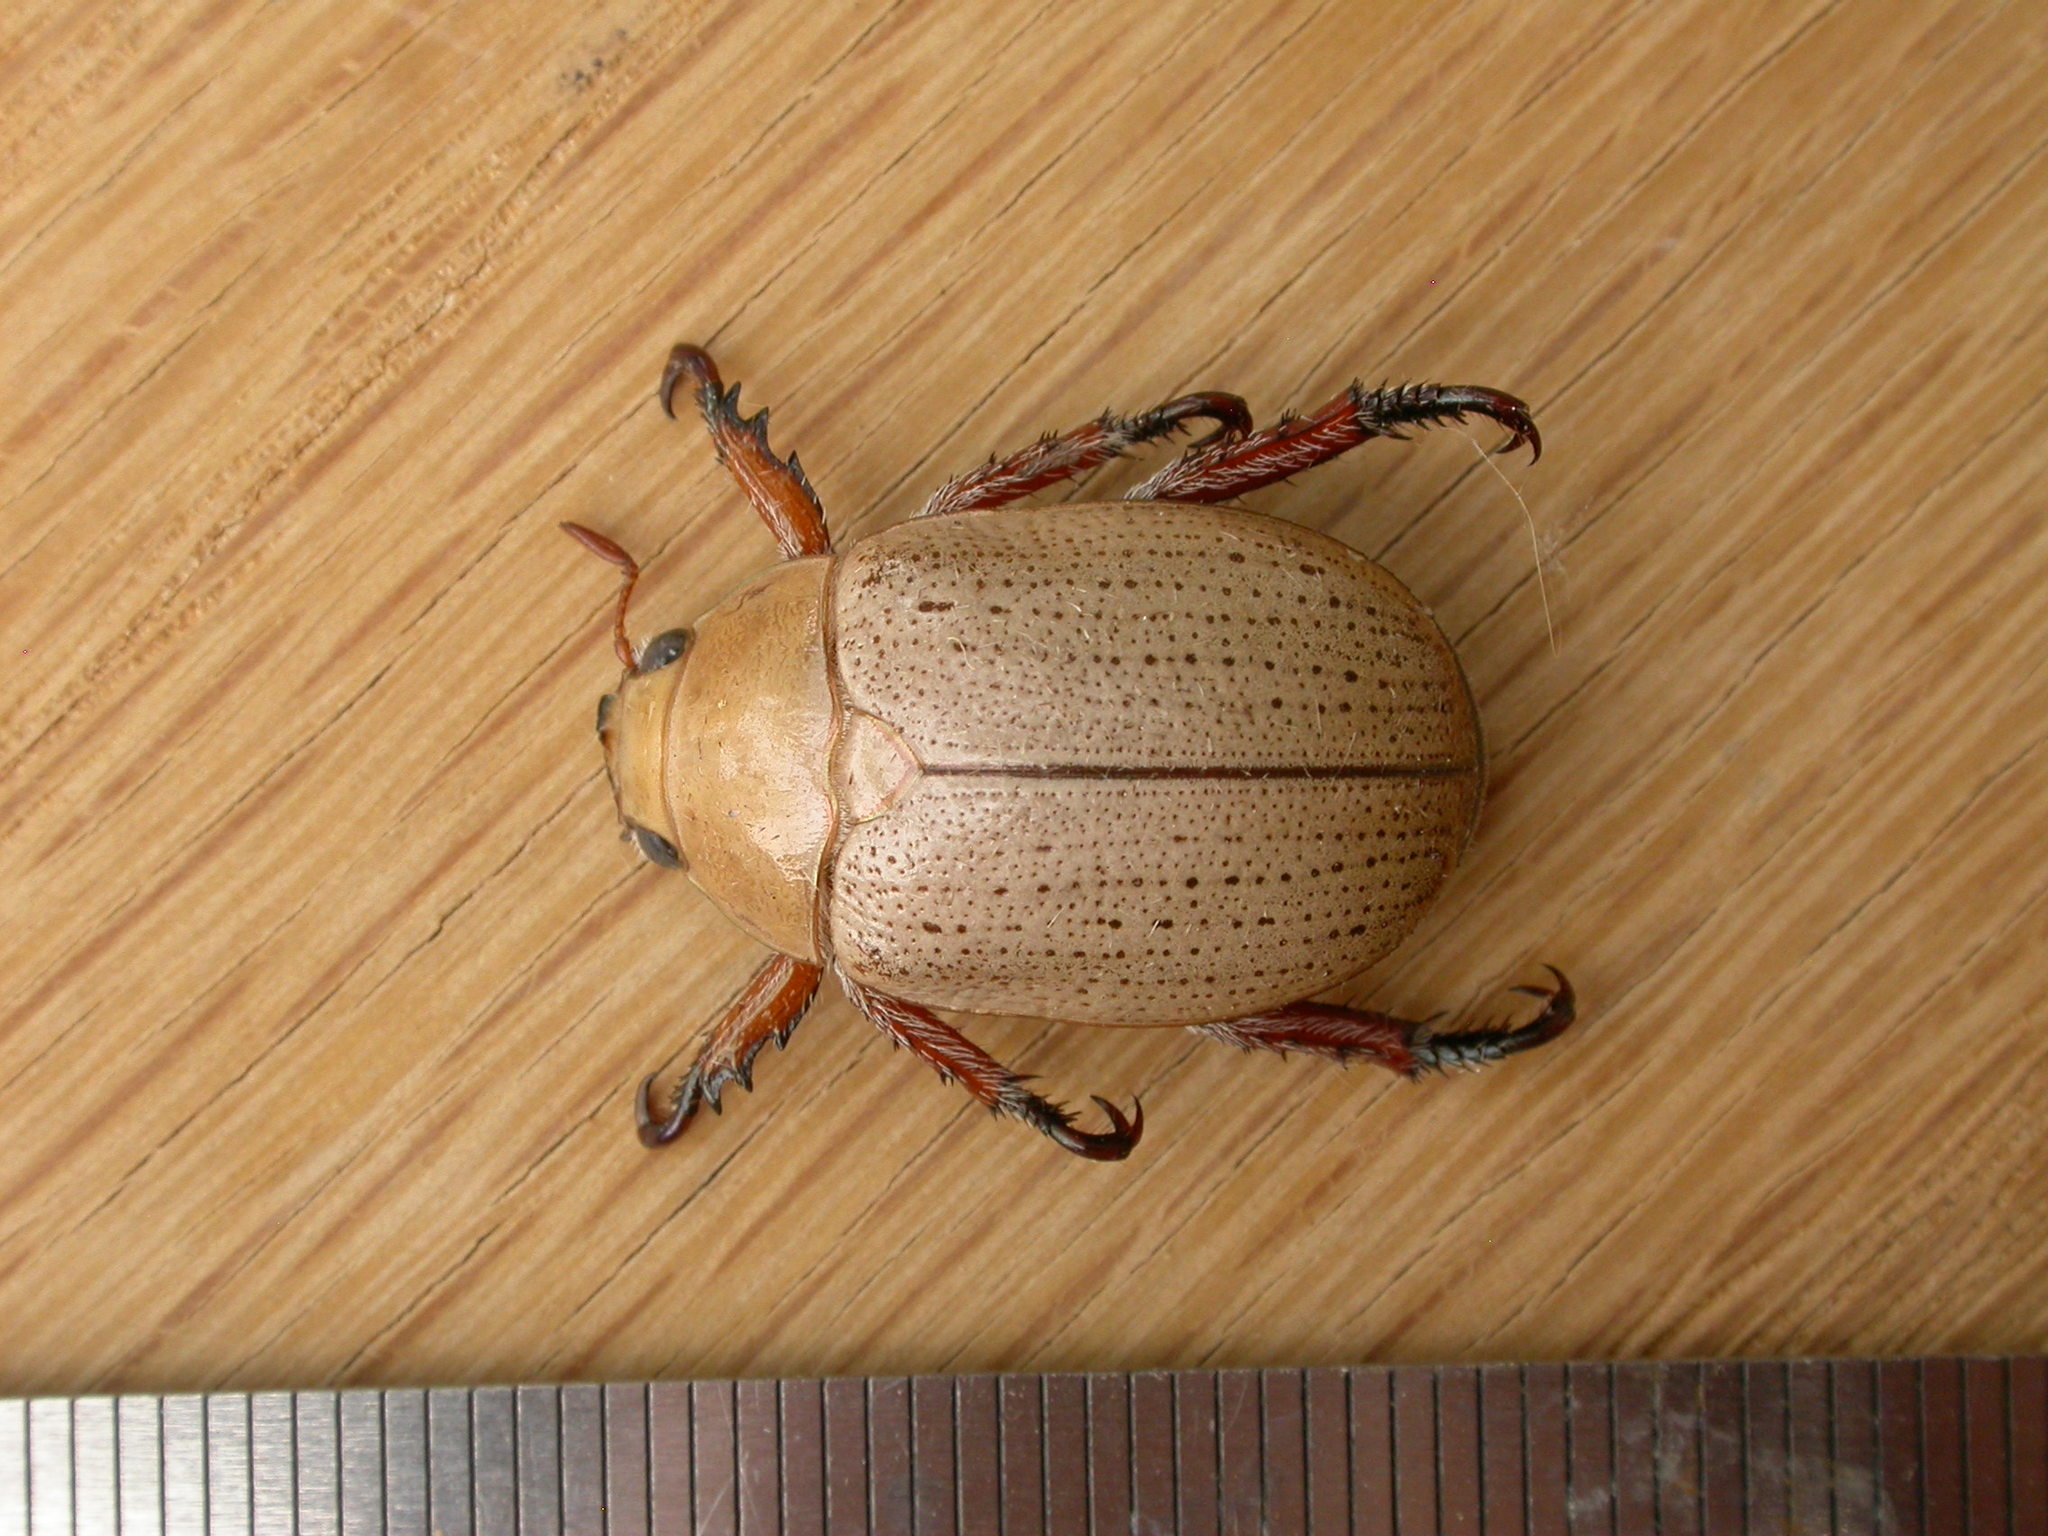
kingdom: Animalia
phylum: Arthropoda
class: Insecta
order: Coleoptera
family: Scarabaeidae
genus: Anoplognathus
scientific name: Anoplognathus pallidicollis
